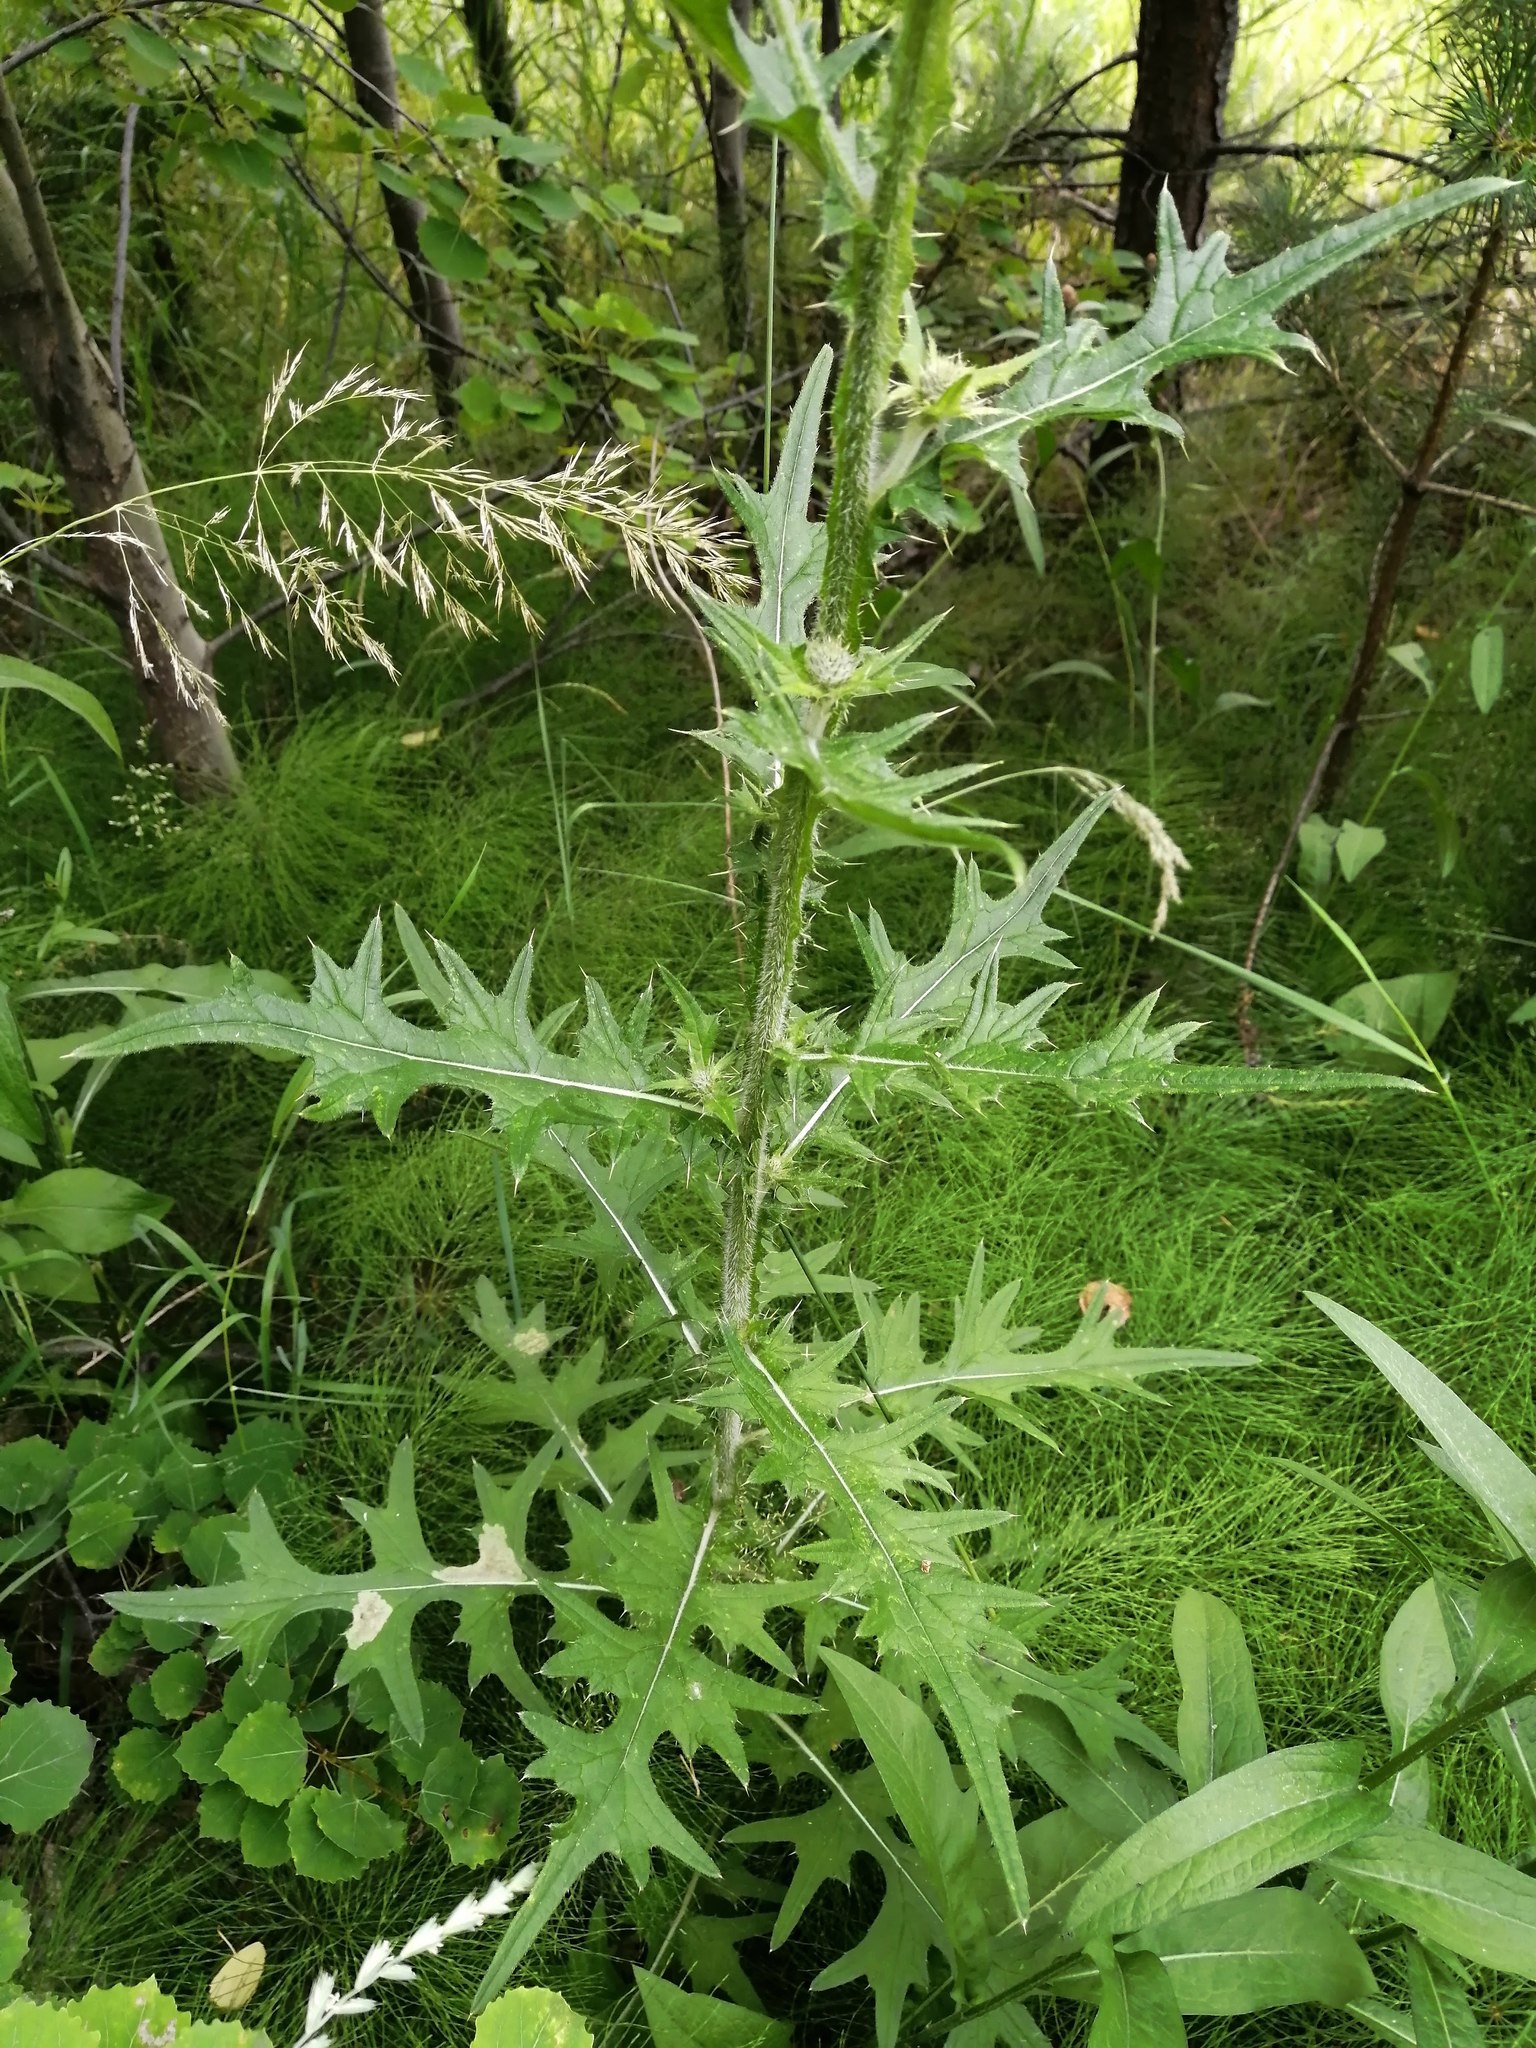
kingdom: Plantae
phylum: Tracheophyta
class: Magnoliopsida
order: Asterales
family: Asteraceae
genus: Cirsium
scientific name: Cirsium vulgare
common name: Bull thistle
